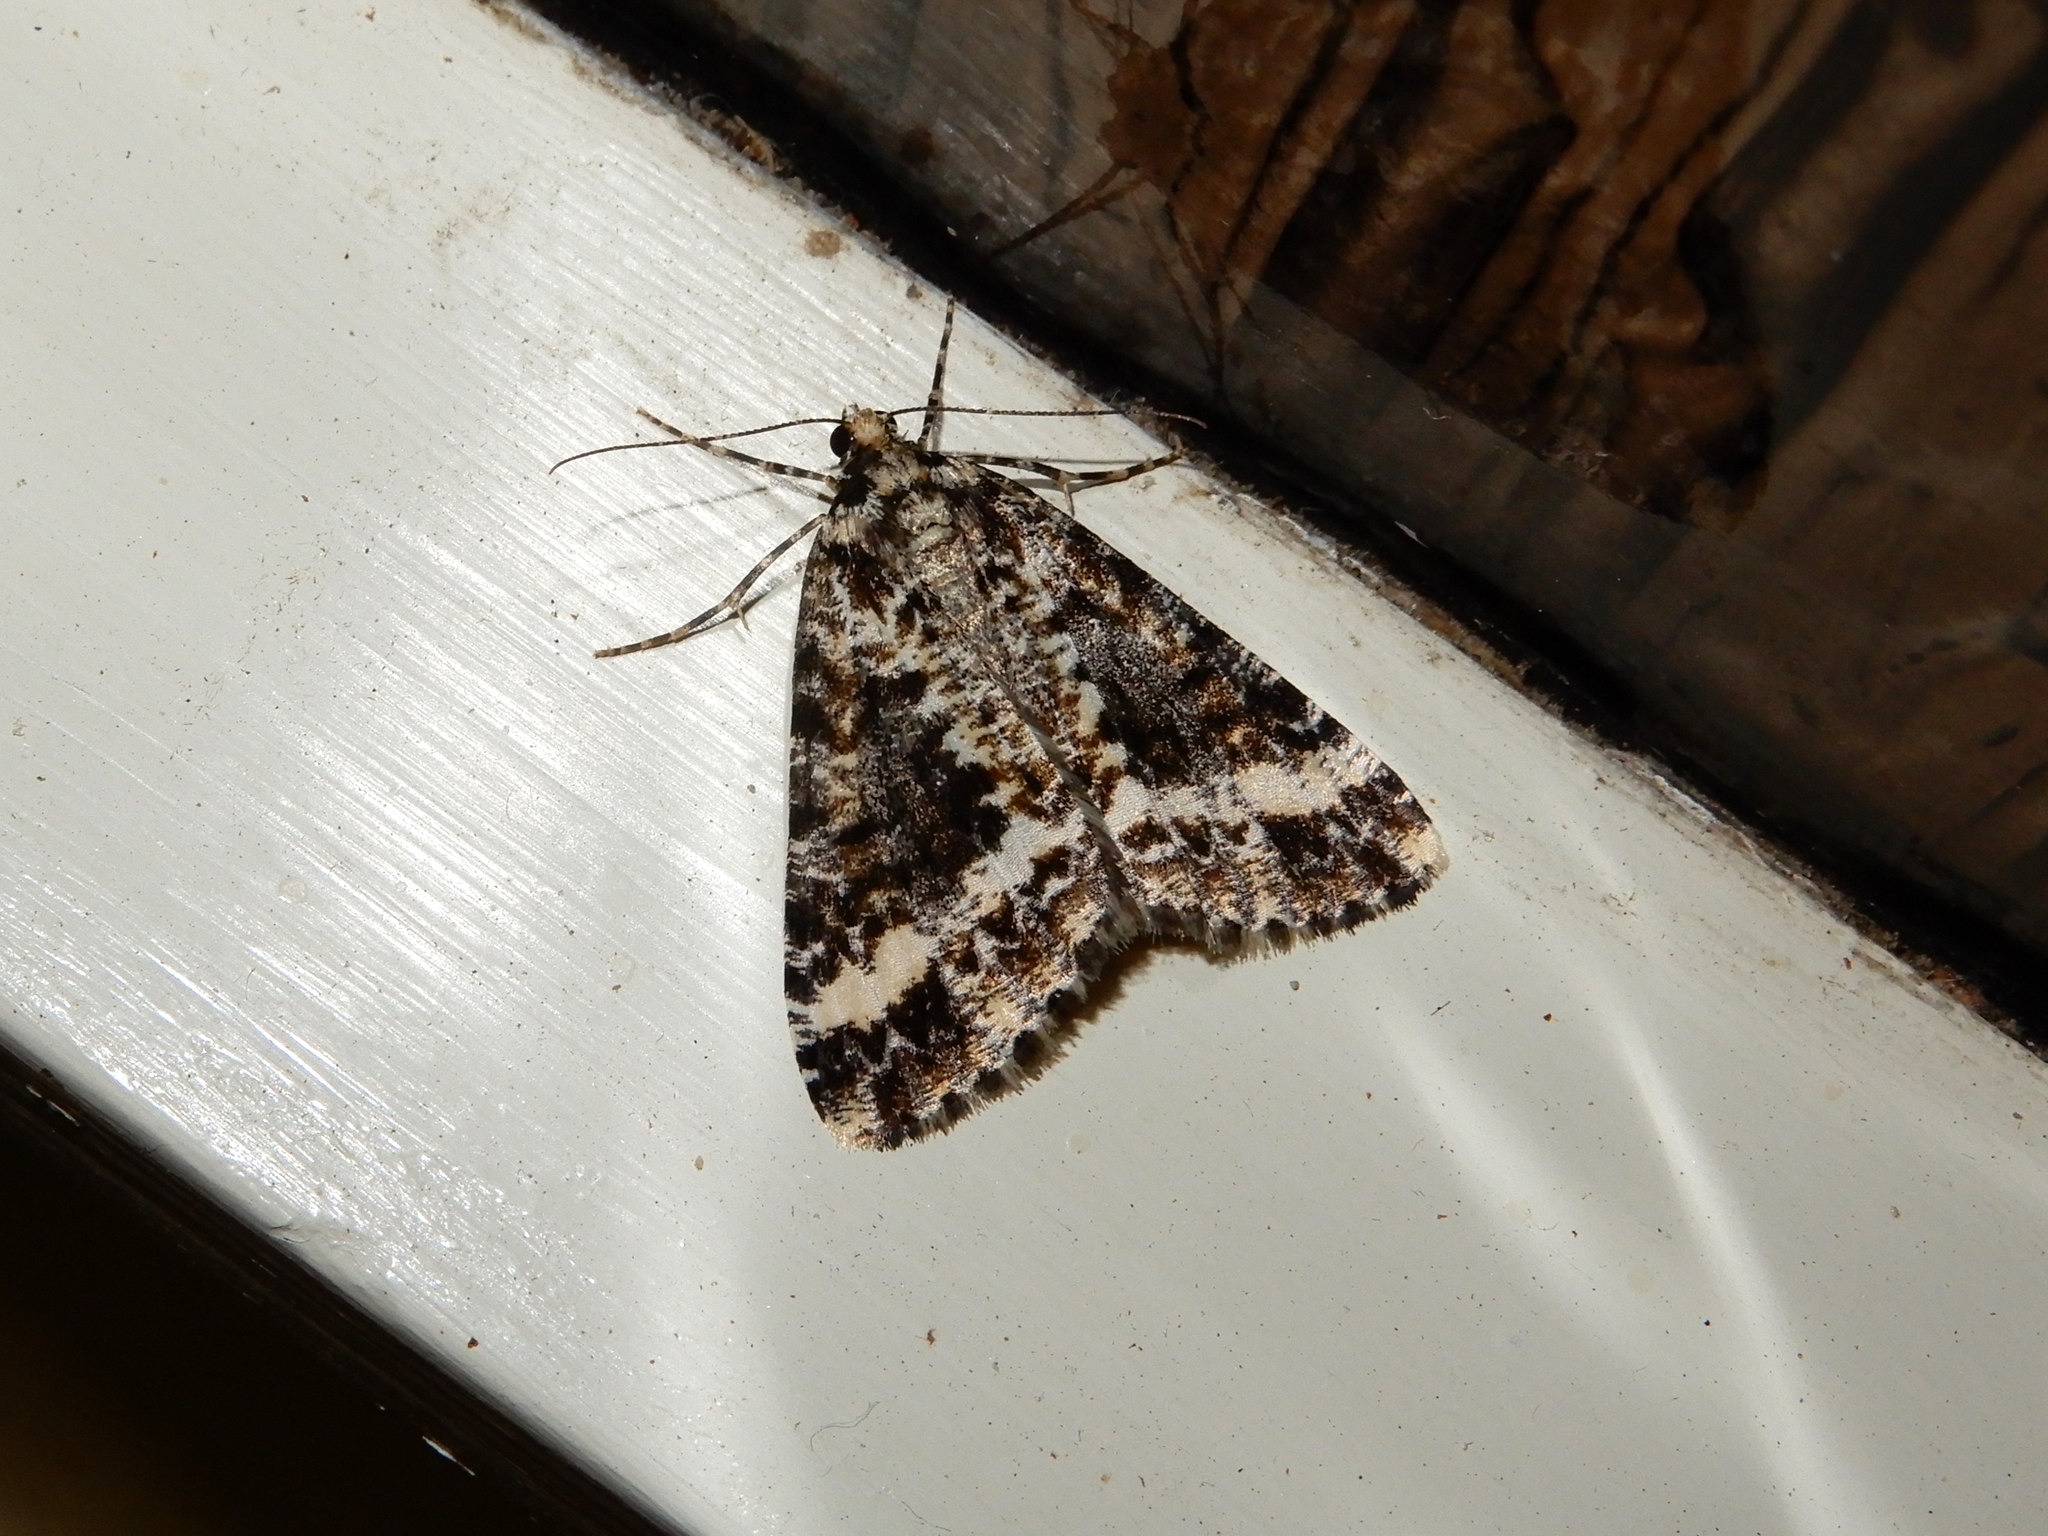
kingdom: Animalia
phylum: Arthropoda
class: Insecta
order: Lepidoptera
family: Geometridae
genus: Pseudocoremia
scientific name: Pseudocoremia leucelaea
